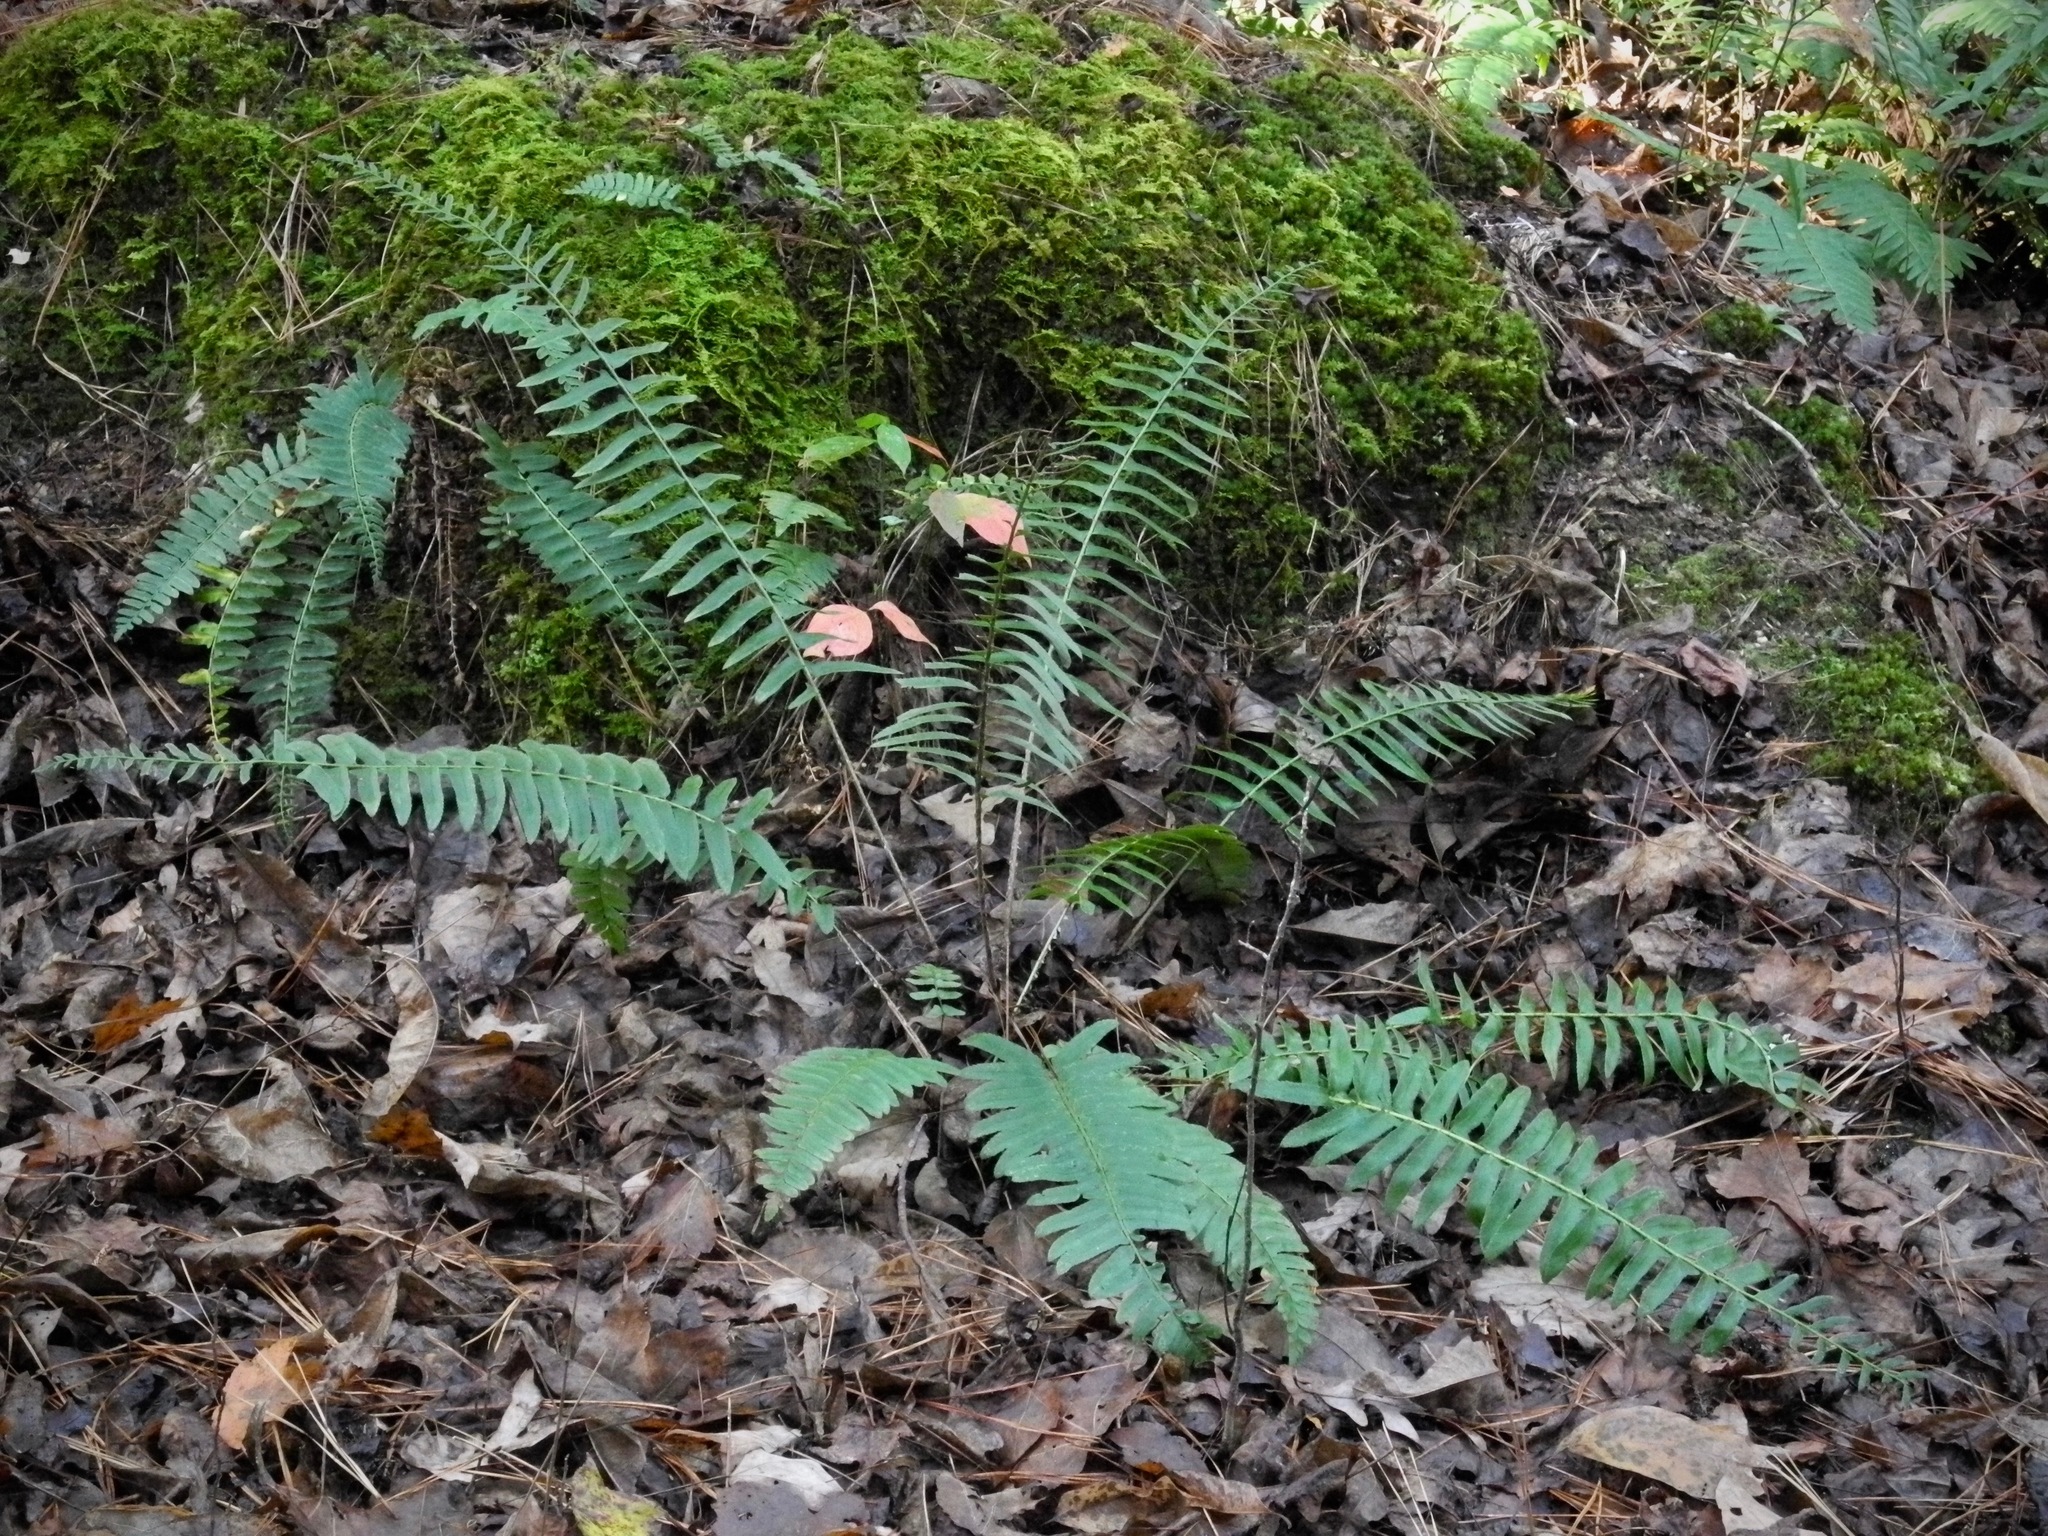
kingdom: Plantae
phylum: Tracheophyta
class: Polypodiopsida
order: Polypodiales
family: Dryopteridaceae
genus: Polystichum
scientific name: Polystichum acrostichoides
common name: Christmas fern
